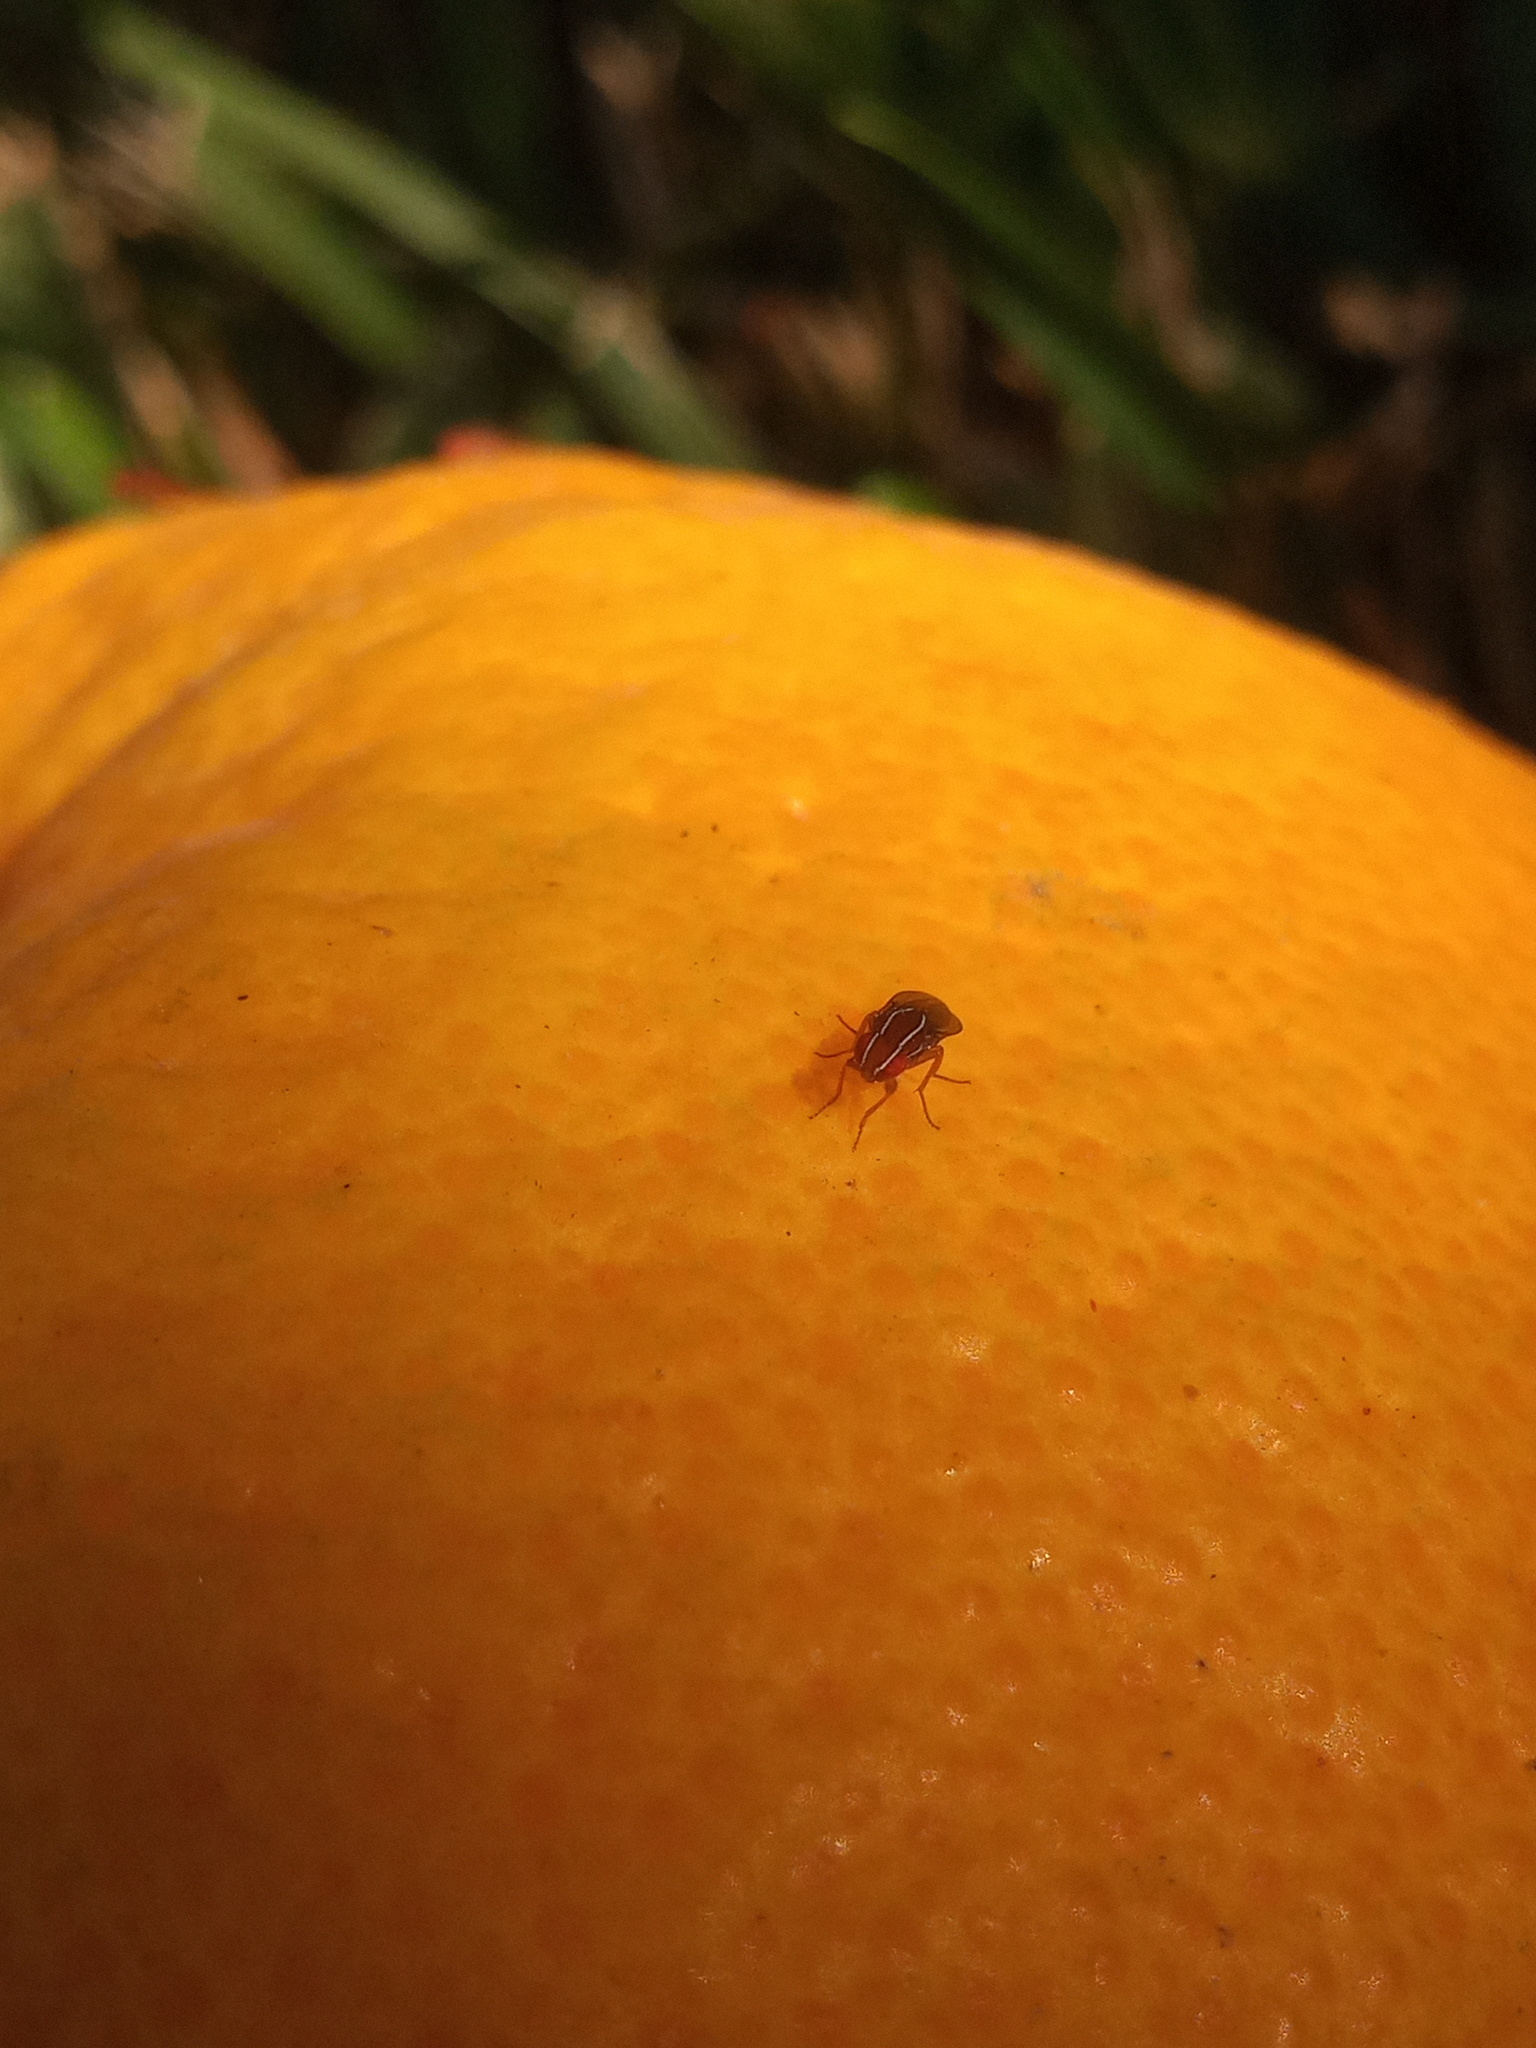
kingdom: Animalia
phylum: Arthropoda
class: Insecta
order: Diptera
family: Drosophilidae
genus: Zaprionus
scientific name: Zaprionus indianus
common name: African fig fly
